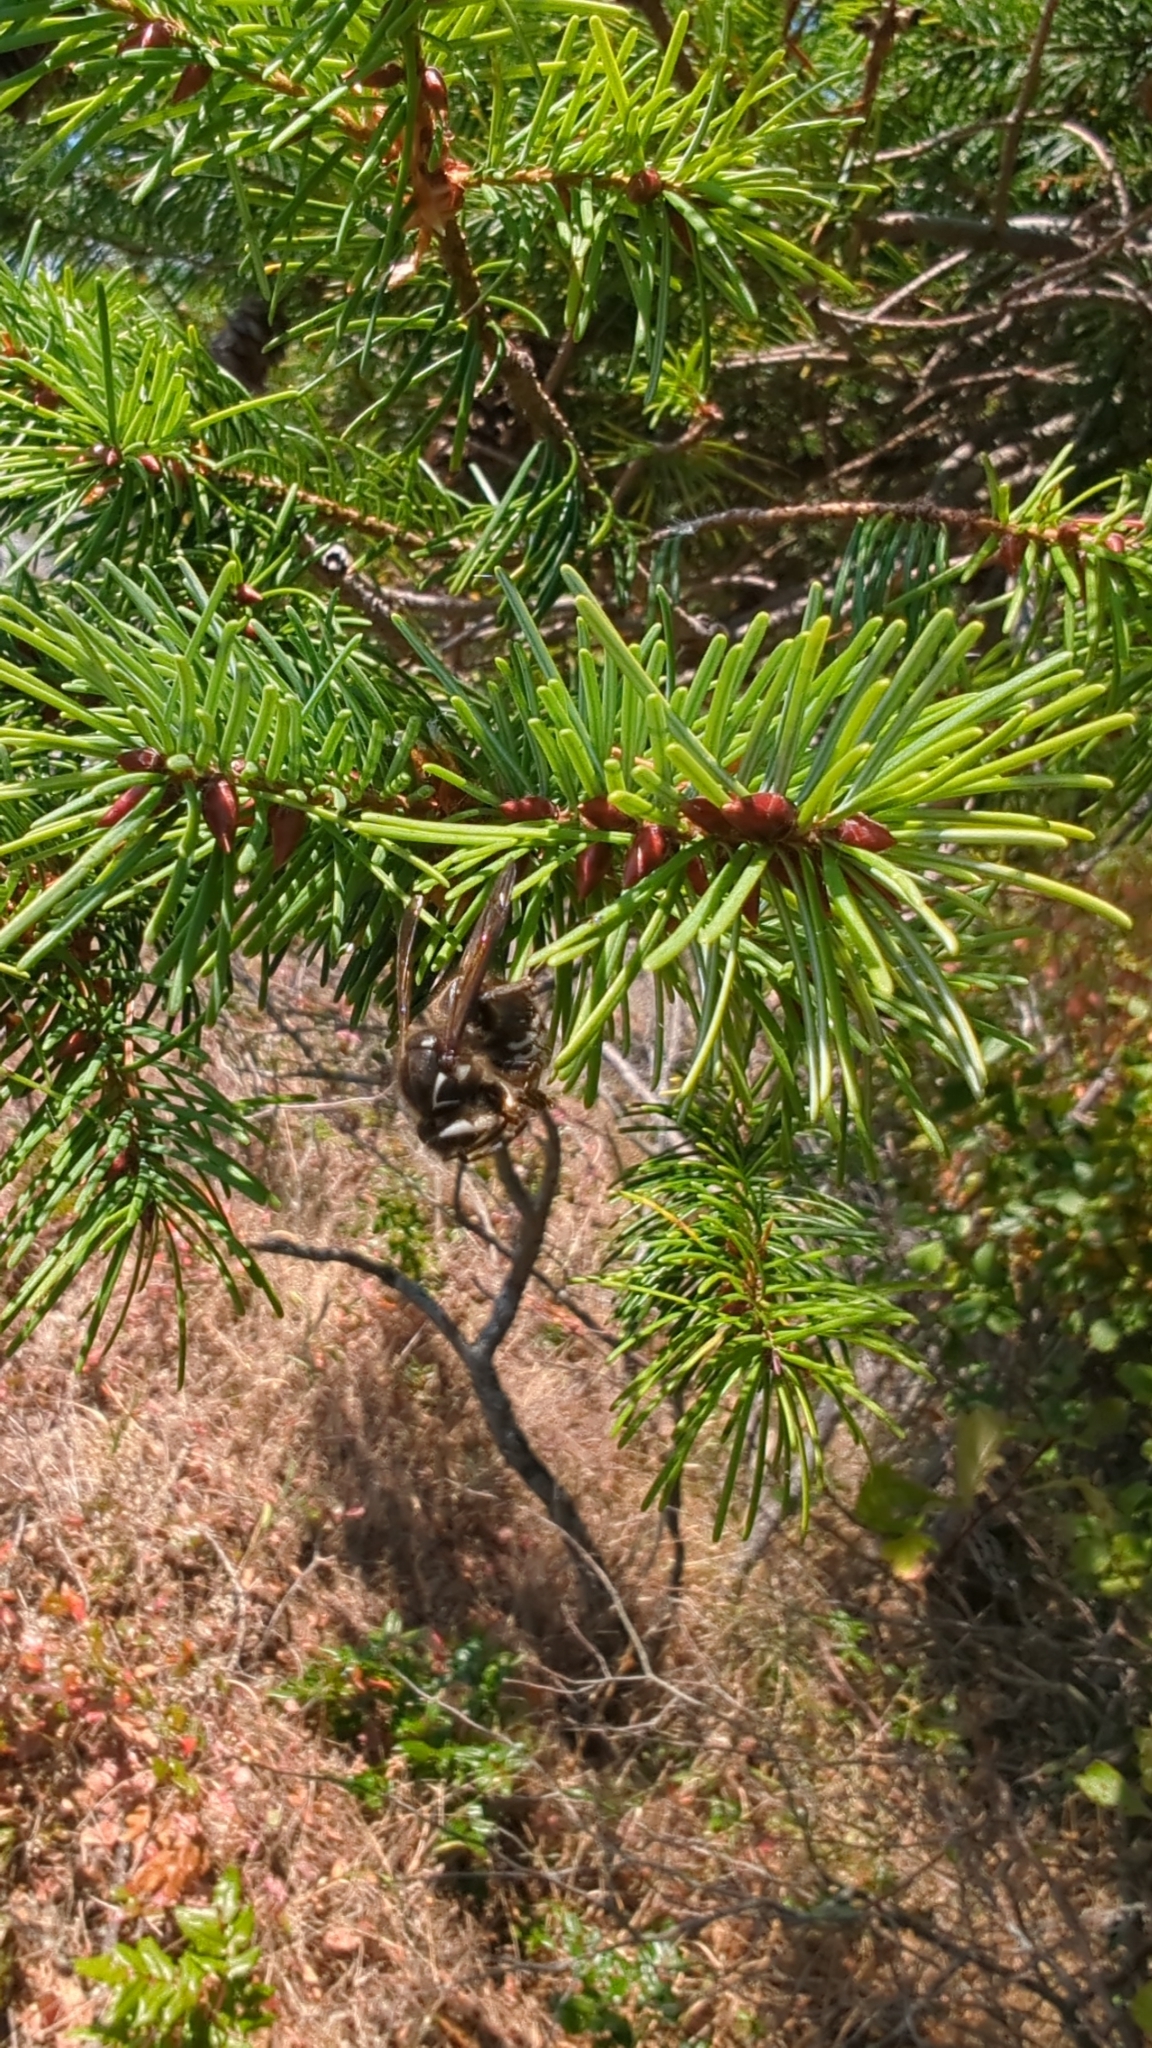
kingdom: Animalia
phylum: Arthropoda
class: Insecta
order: Hymenoptera
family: Vespidae
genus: Dolichovespula
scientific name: Dolichovespula maculata
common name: Bald-faced hornet
